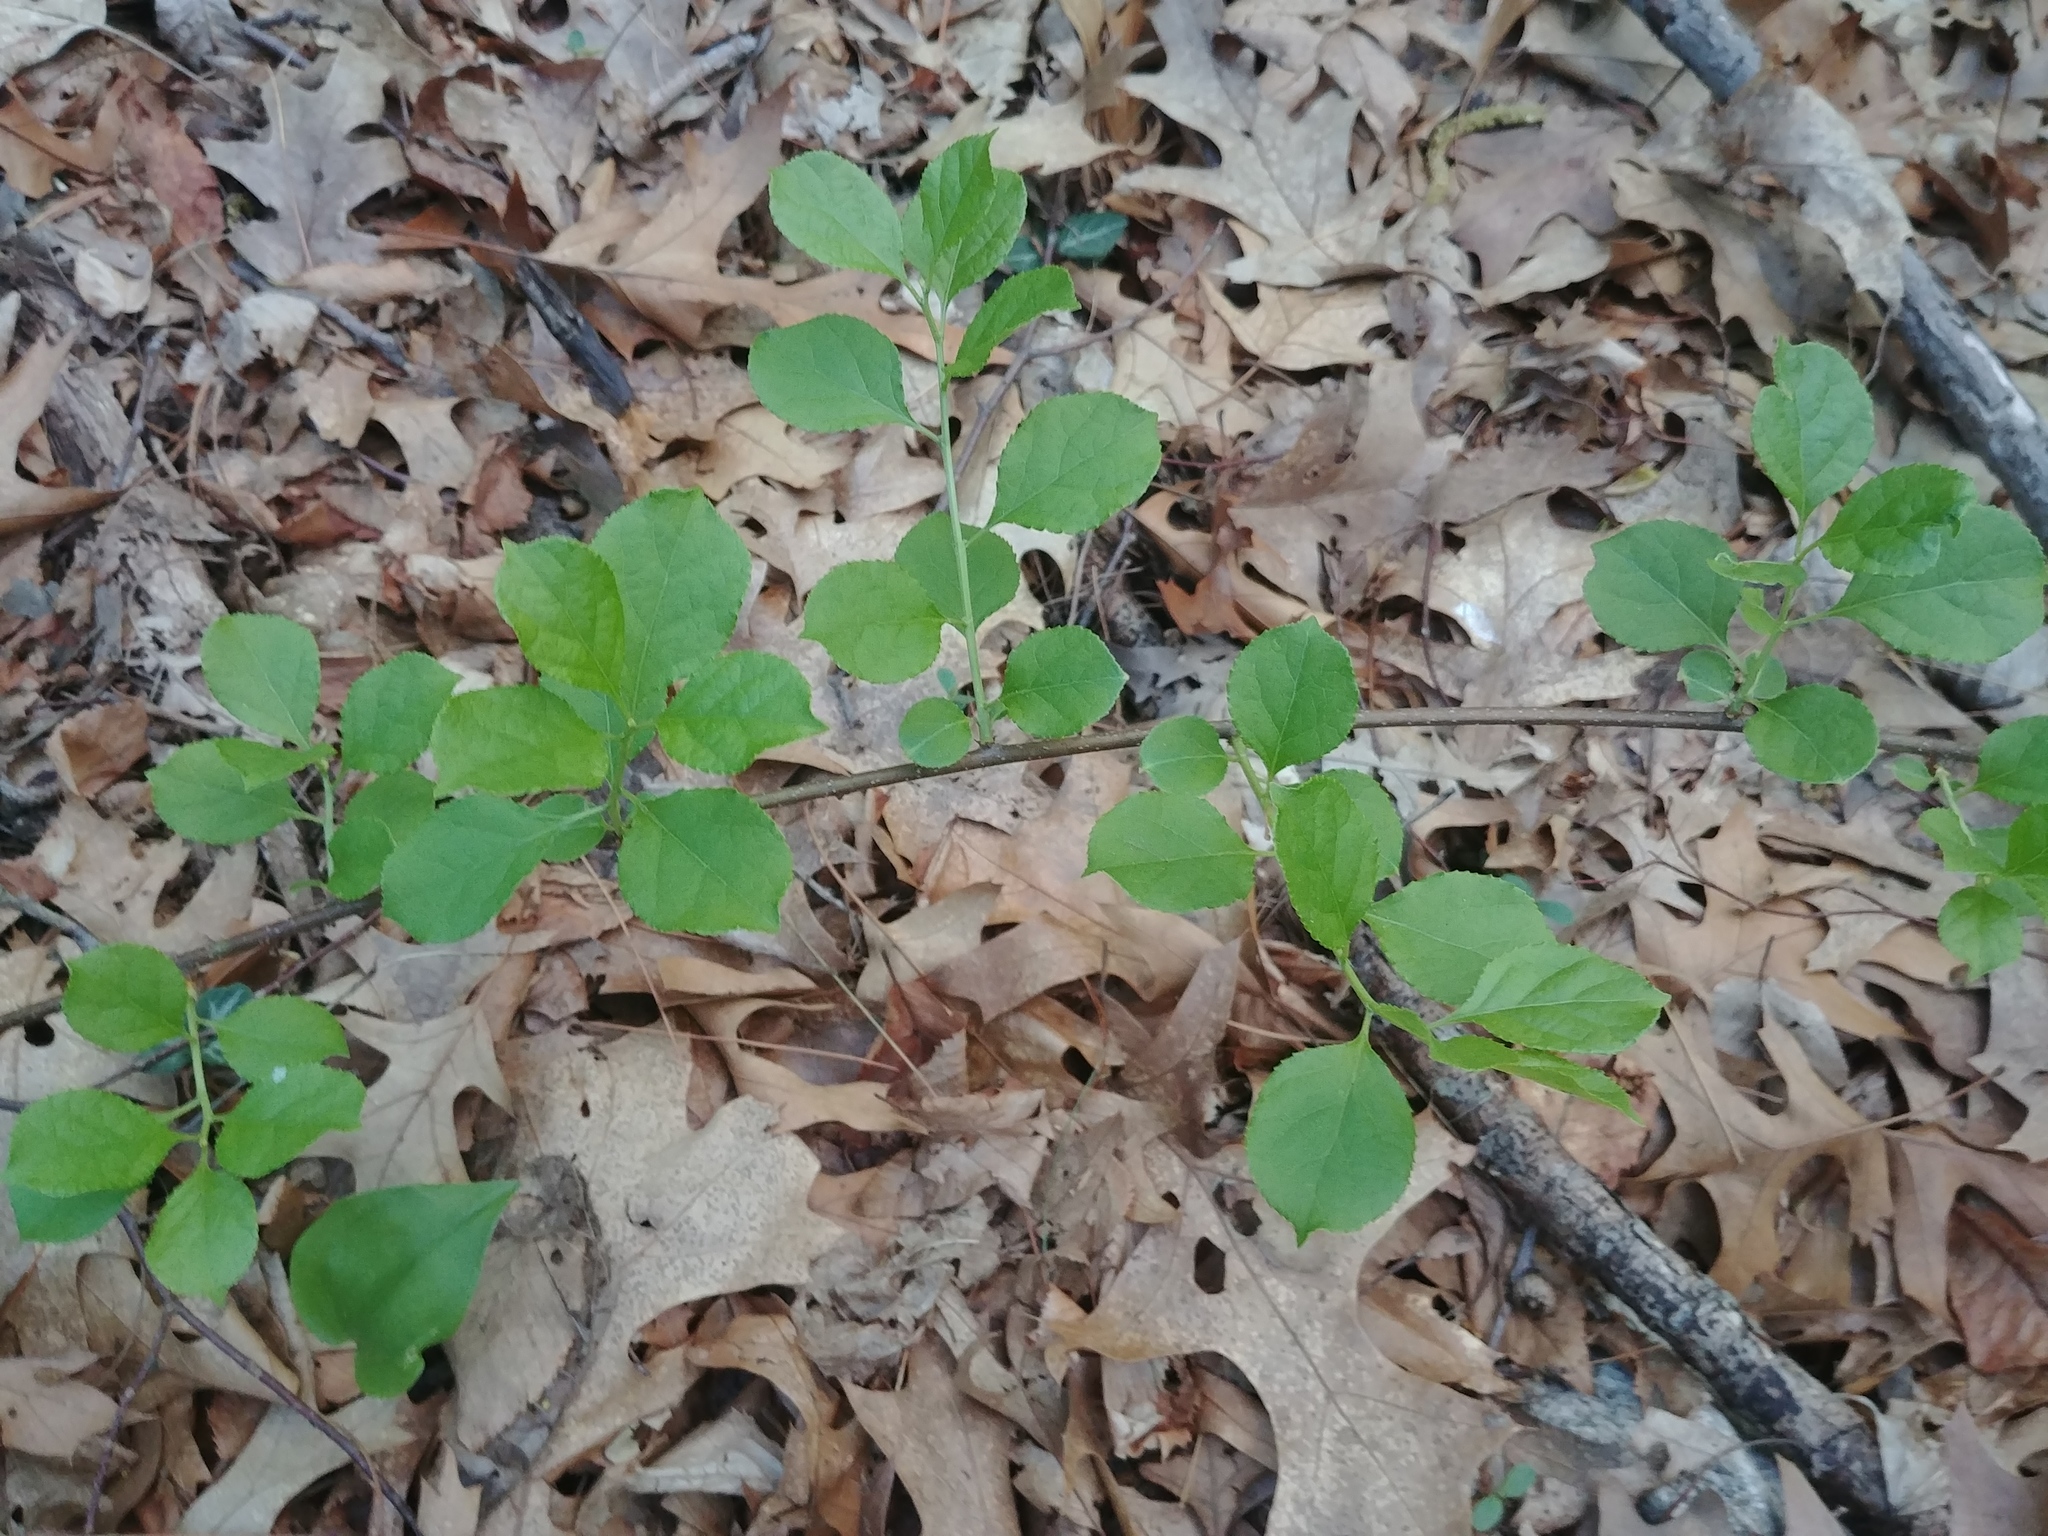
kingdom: Plantae
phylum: Tracheophyta
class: Magnoliopsida
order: Celastrales
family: Celastraceae
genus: Celastrus
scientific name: Celastrus orbiculatus
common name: Oriental bittersweet
